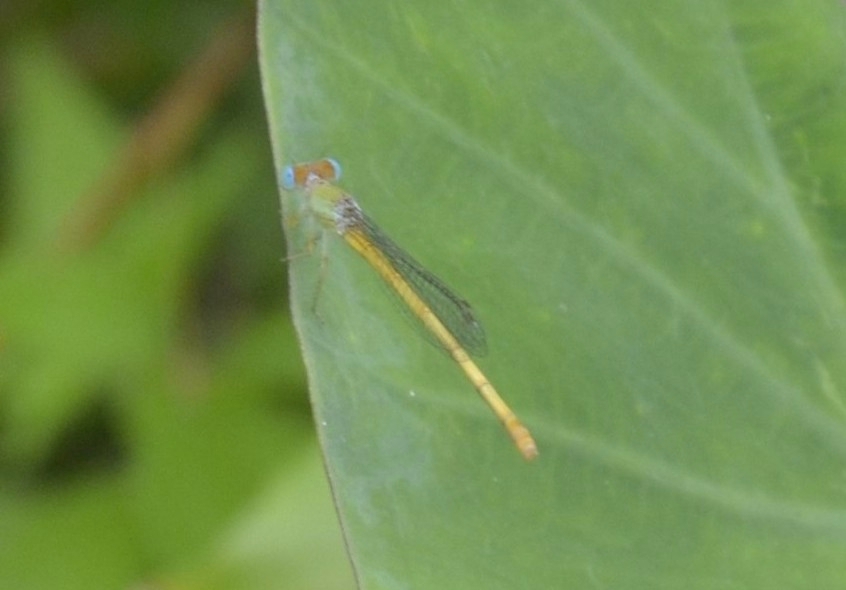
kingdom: Animalia
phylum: Arthropoda
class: Insecta
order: Odonata
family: Coenagrionidae
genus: Ceriagrion
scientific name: Ceriagrion coromandelianum
